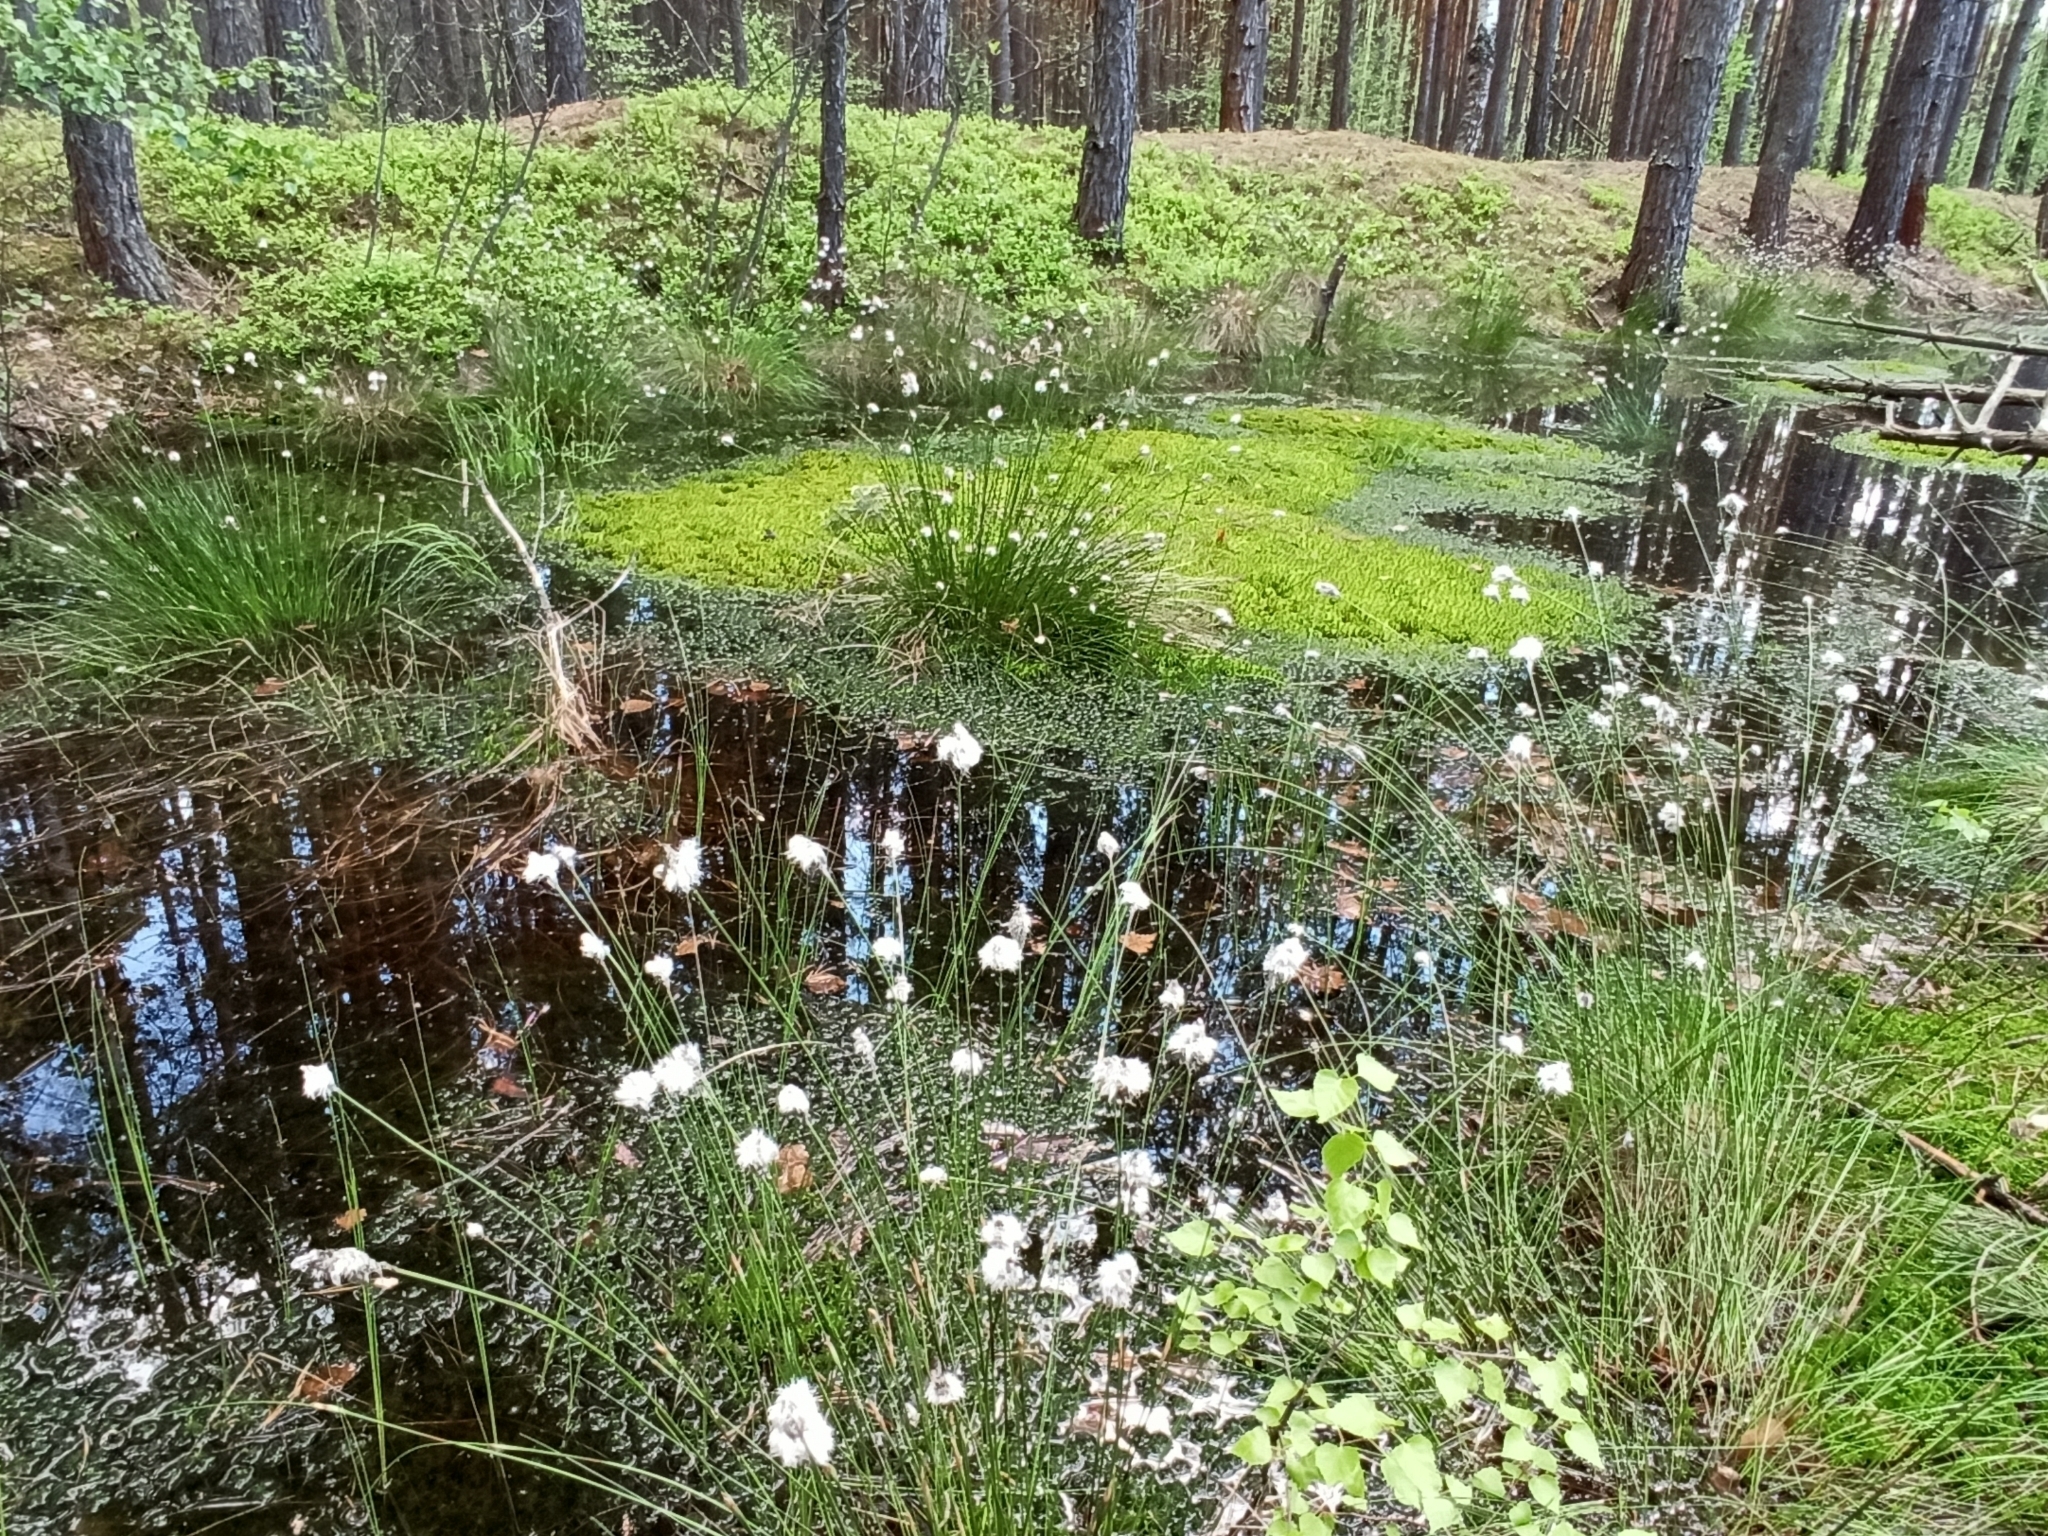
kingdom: Plantae
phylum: Tracheophyta
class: Liliopsida
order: Poales
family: Cyperaceae
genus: Eriophorum
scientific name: Eriophorum vaginatum
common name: Hare's-tail cottongrass
